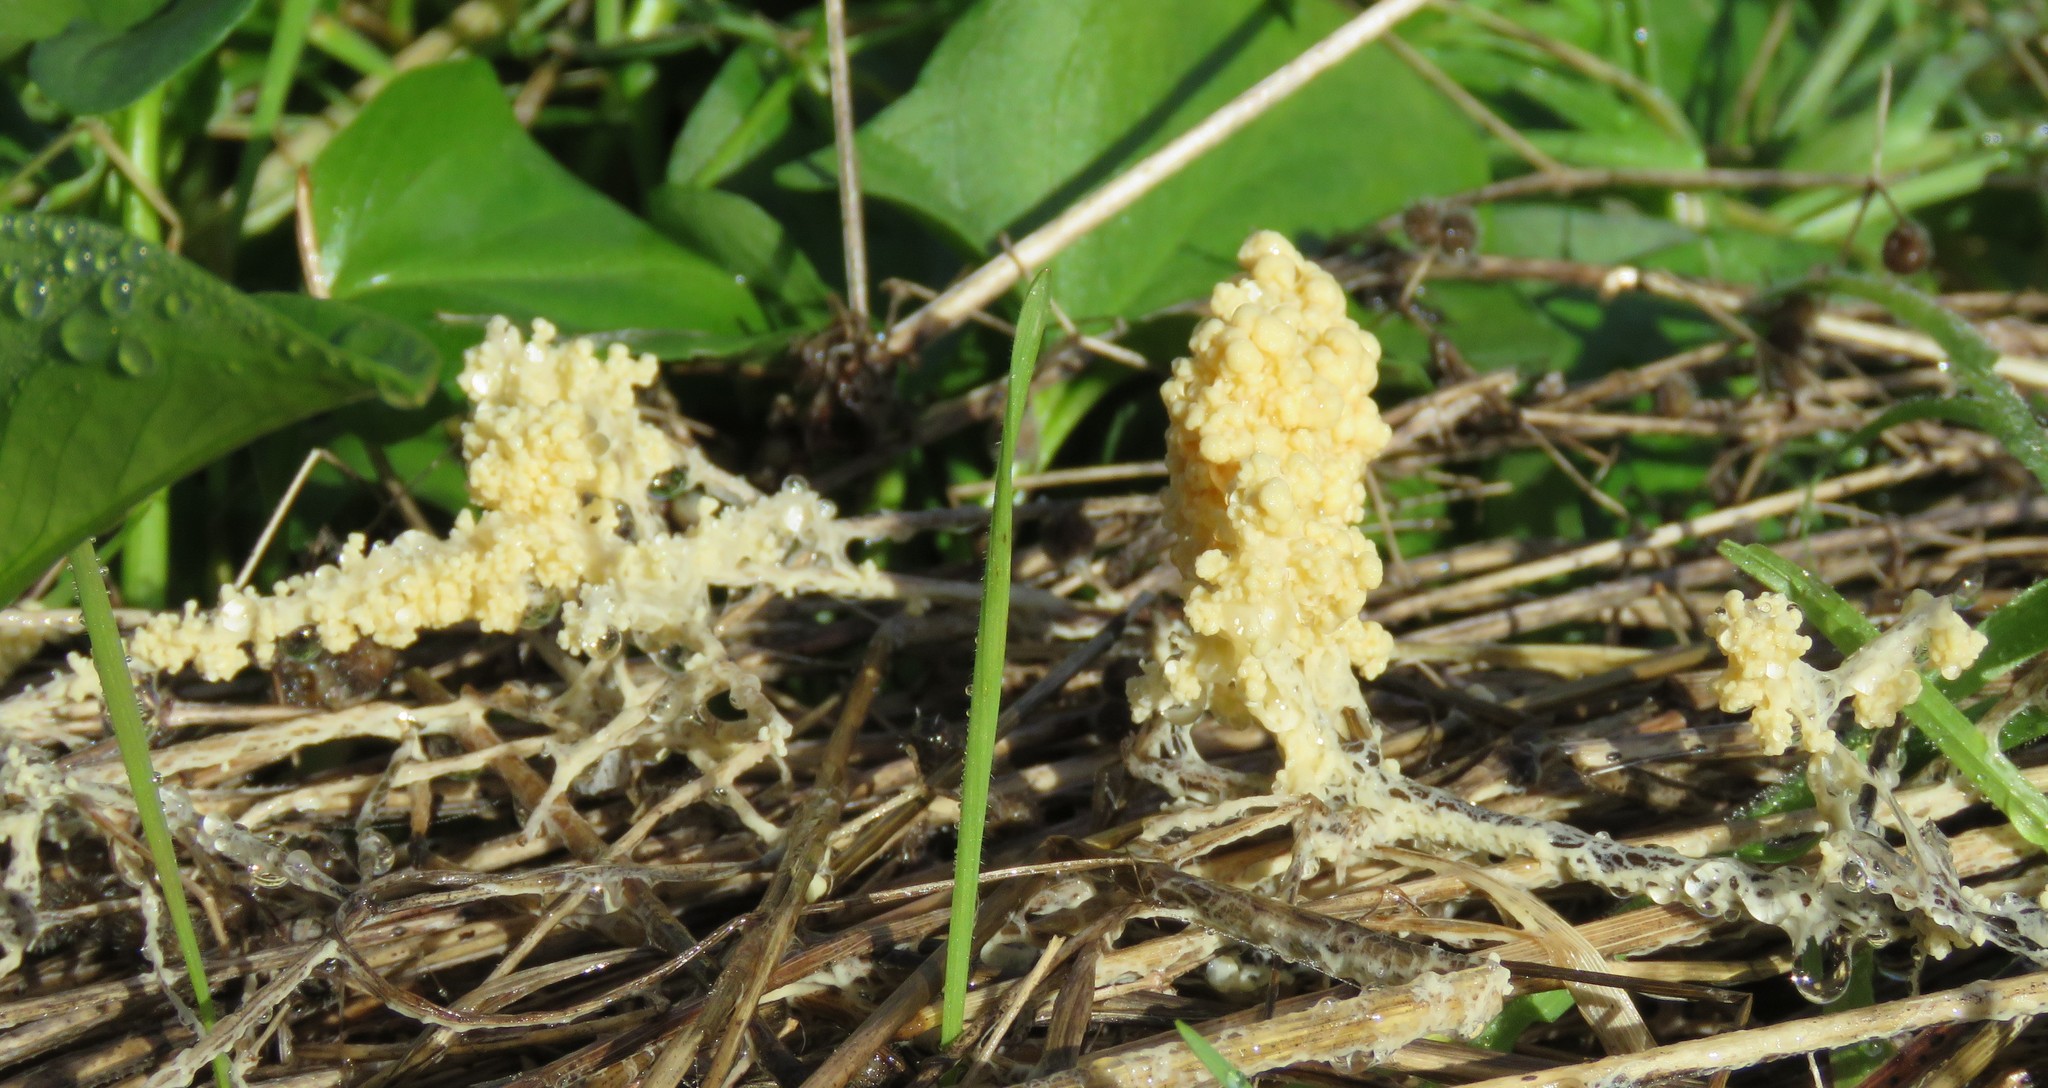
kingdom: Protozoa
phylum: Mycetozoa
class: Myxomycetes
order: Physarales
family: Physaraceae
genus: Didymium
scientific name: Didymium
